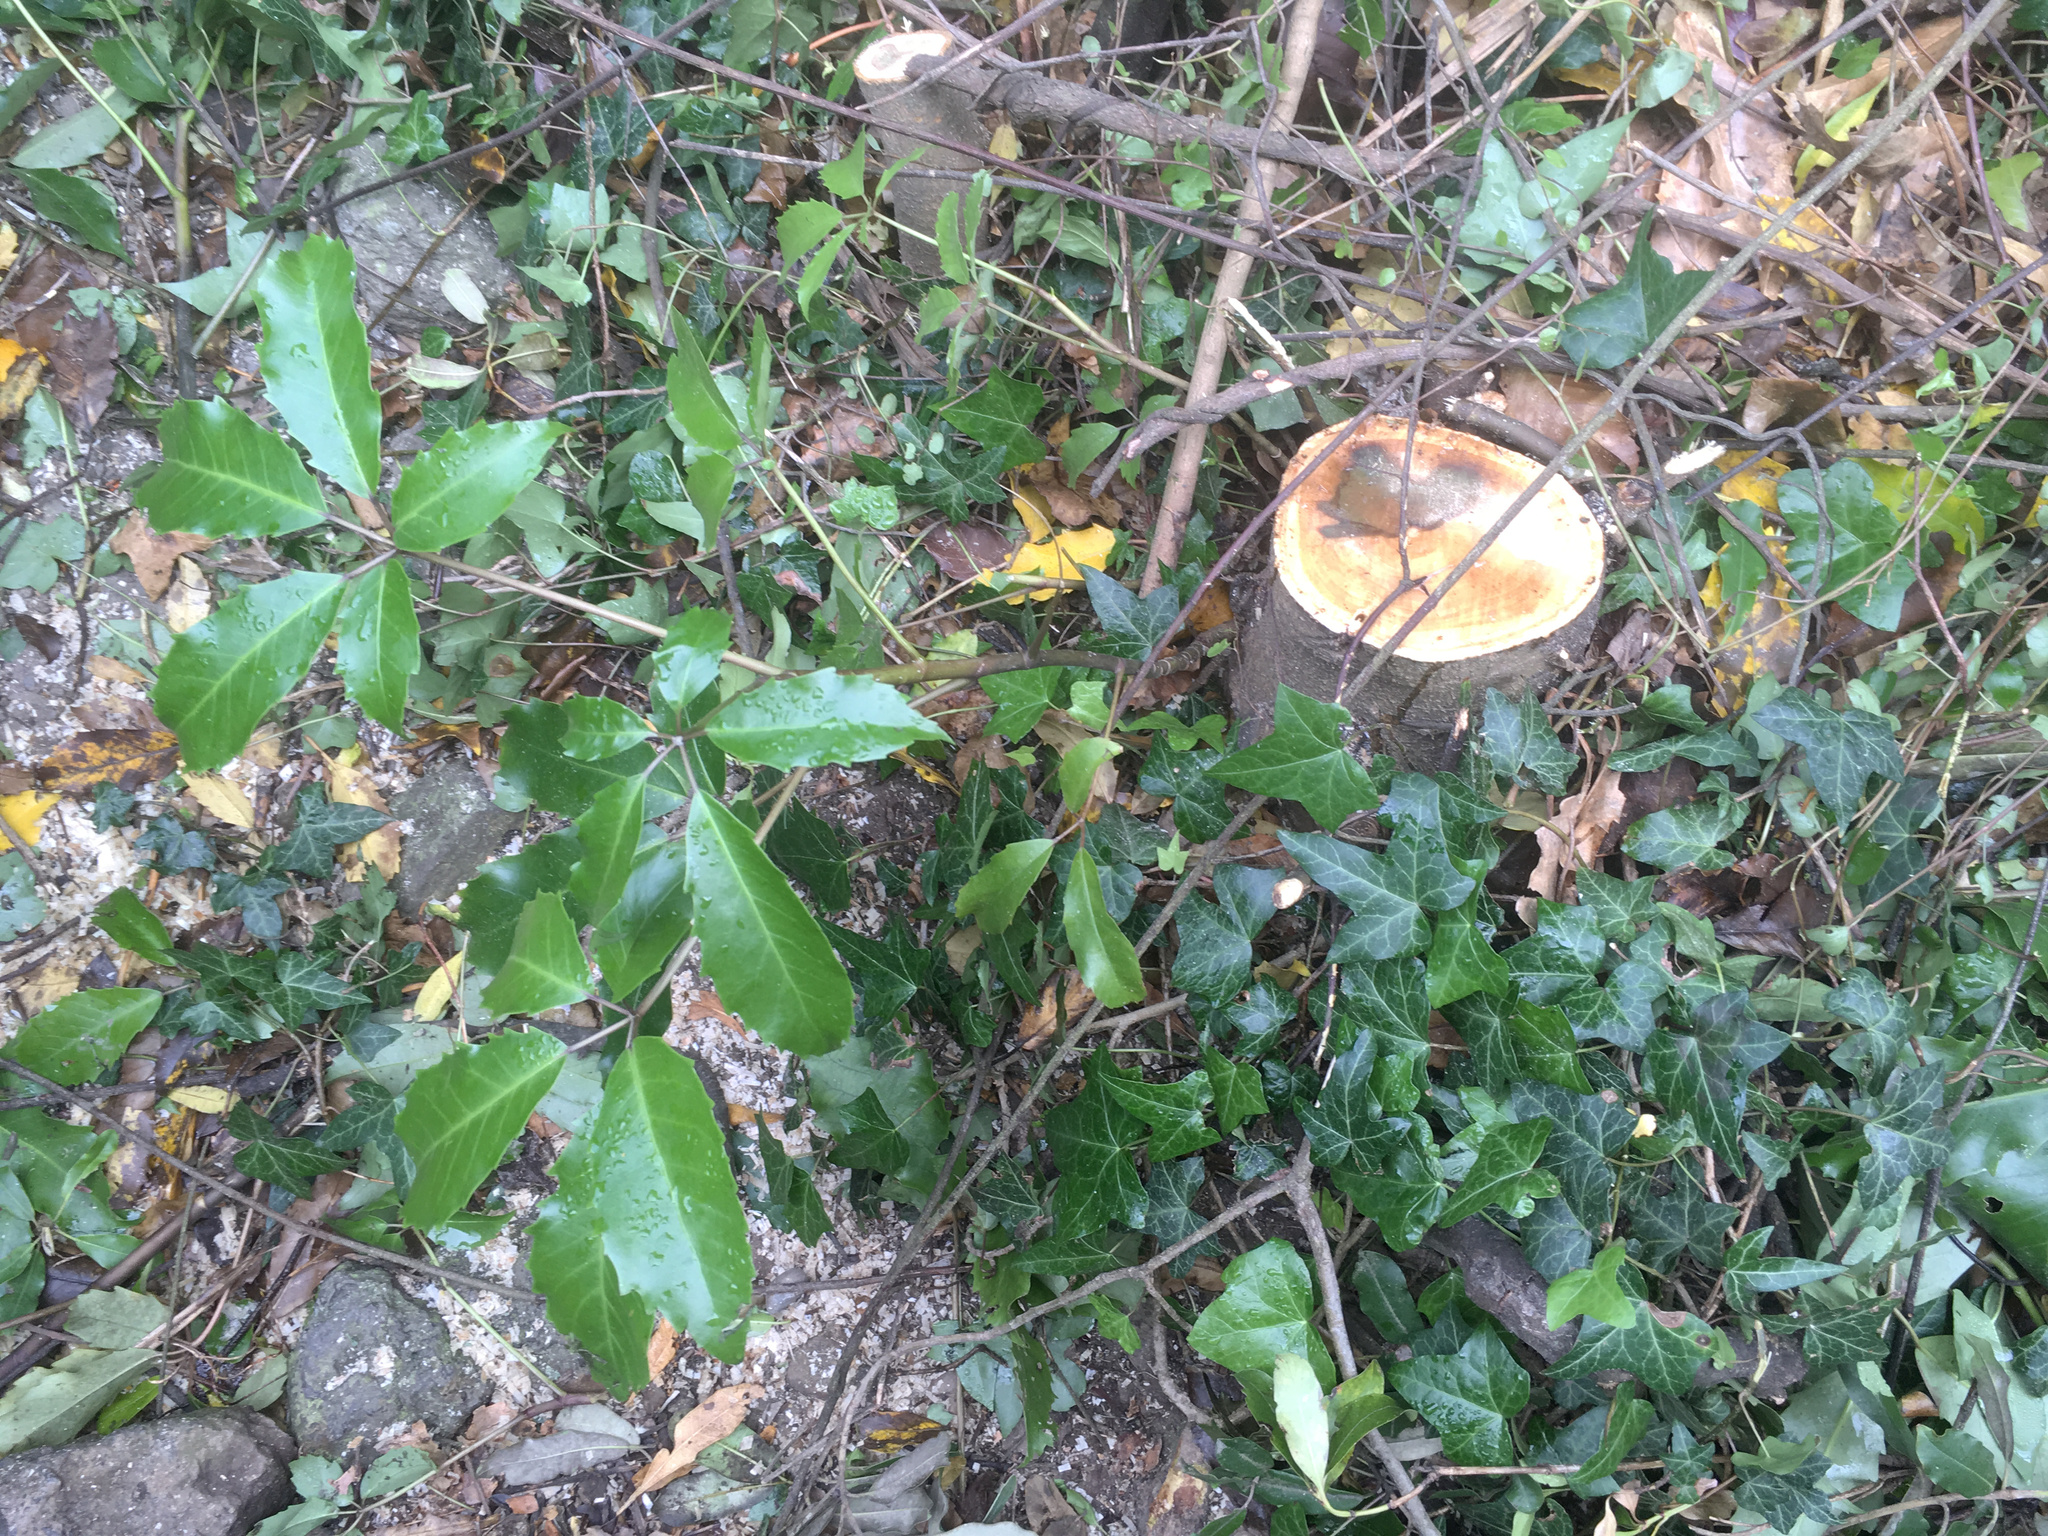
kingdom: Plantae
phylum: Tracheophyta
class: Magnoliopsida
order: Apiales
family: Araliaceae
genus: Neopanax
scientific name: Neopanax arboreus
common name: Five-fingers
